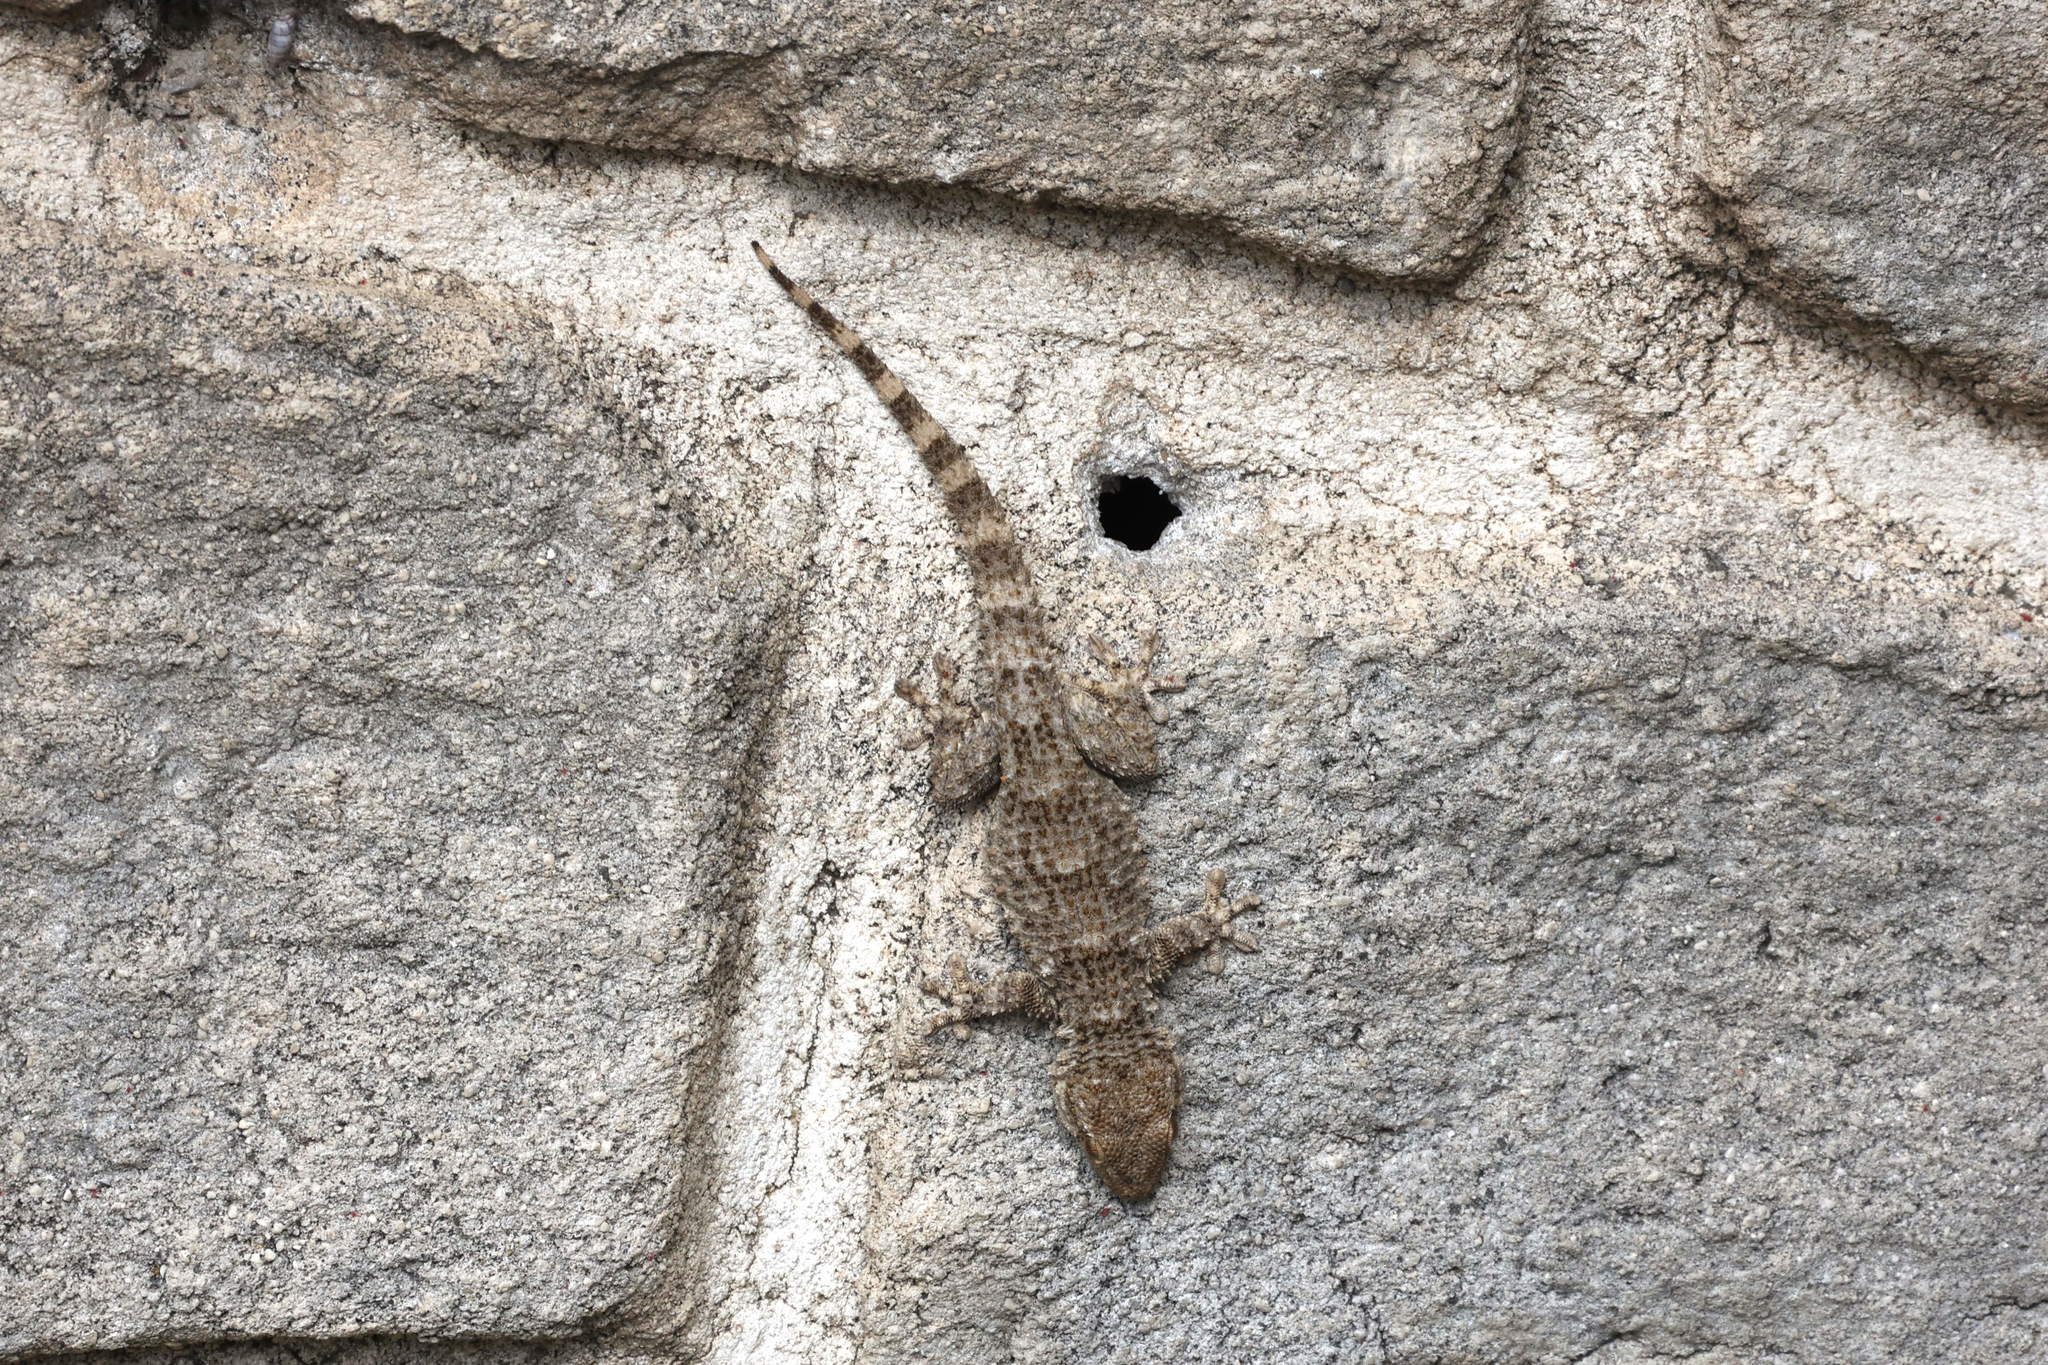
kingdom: Animalia
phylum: Chordata
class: Squamata
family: Phyllodactylidae
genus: Tarentola
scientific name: Tarentola mauritanica
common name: Moorish gecko
